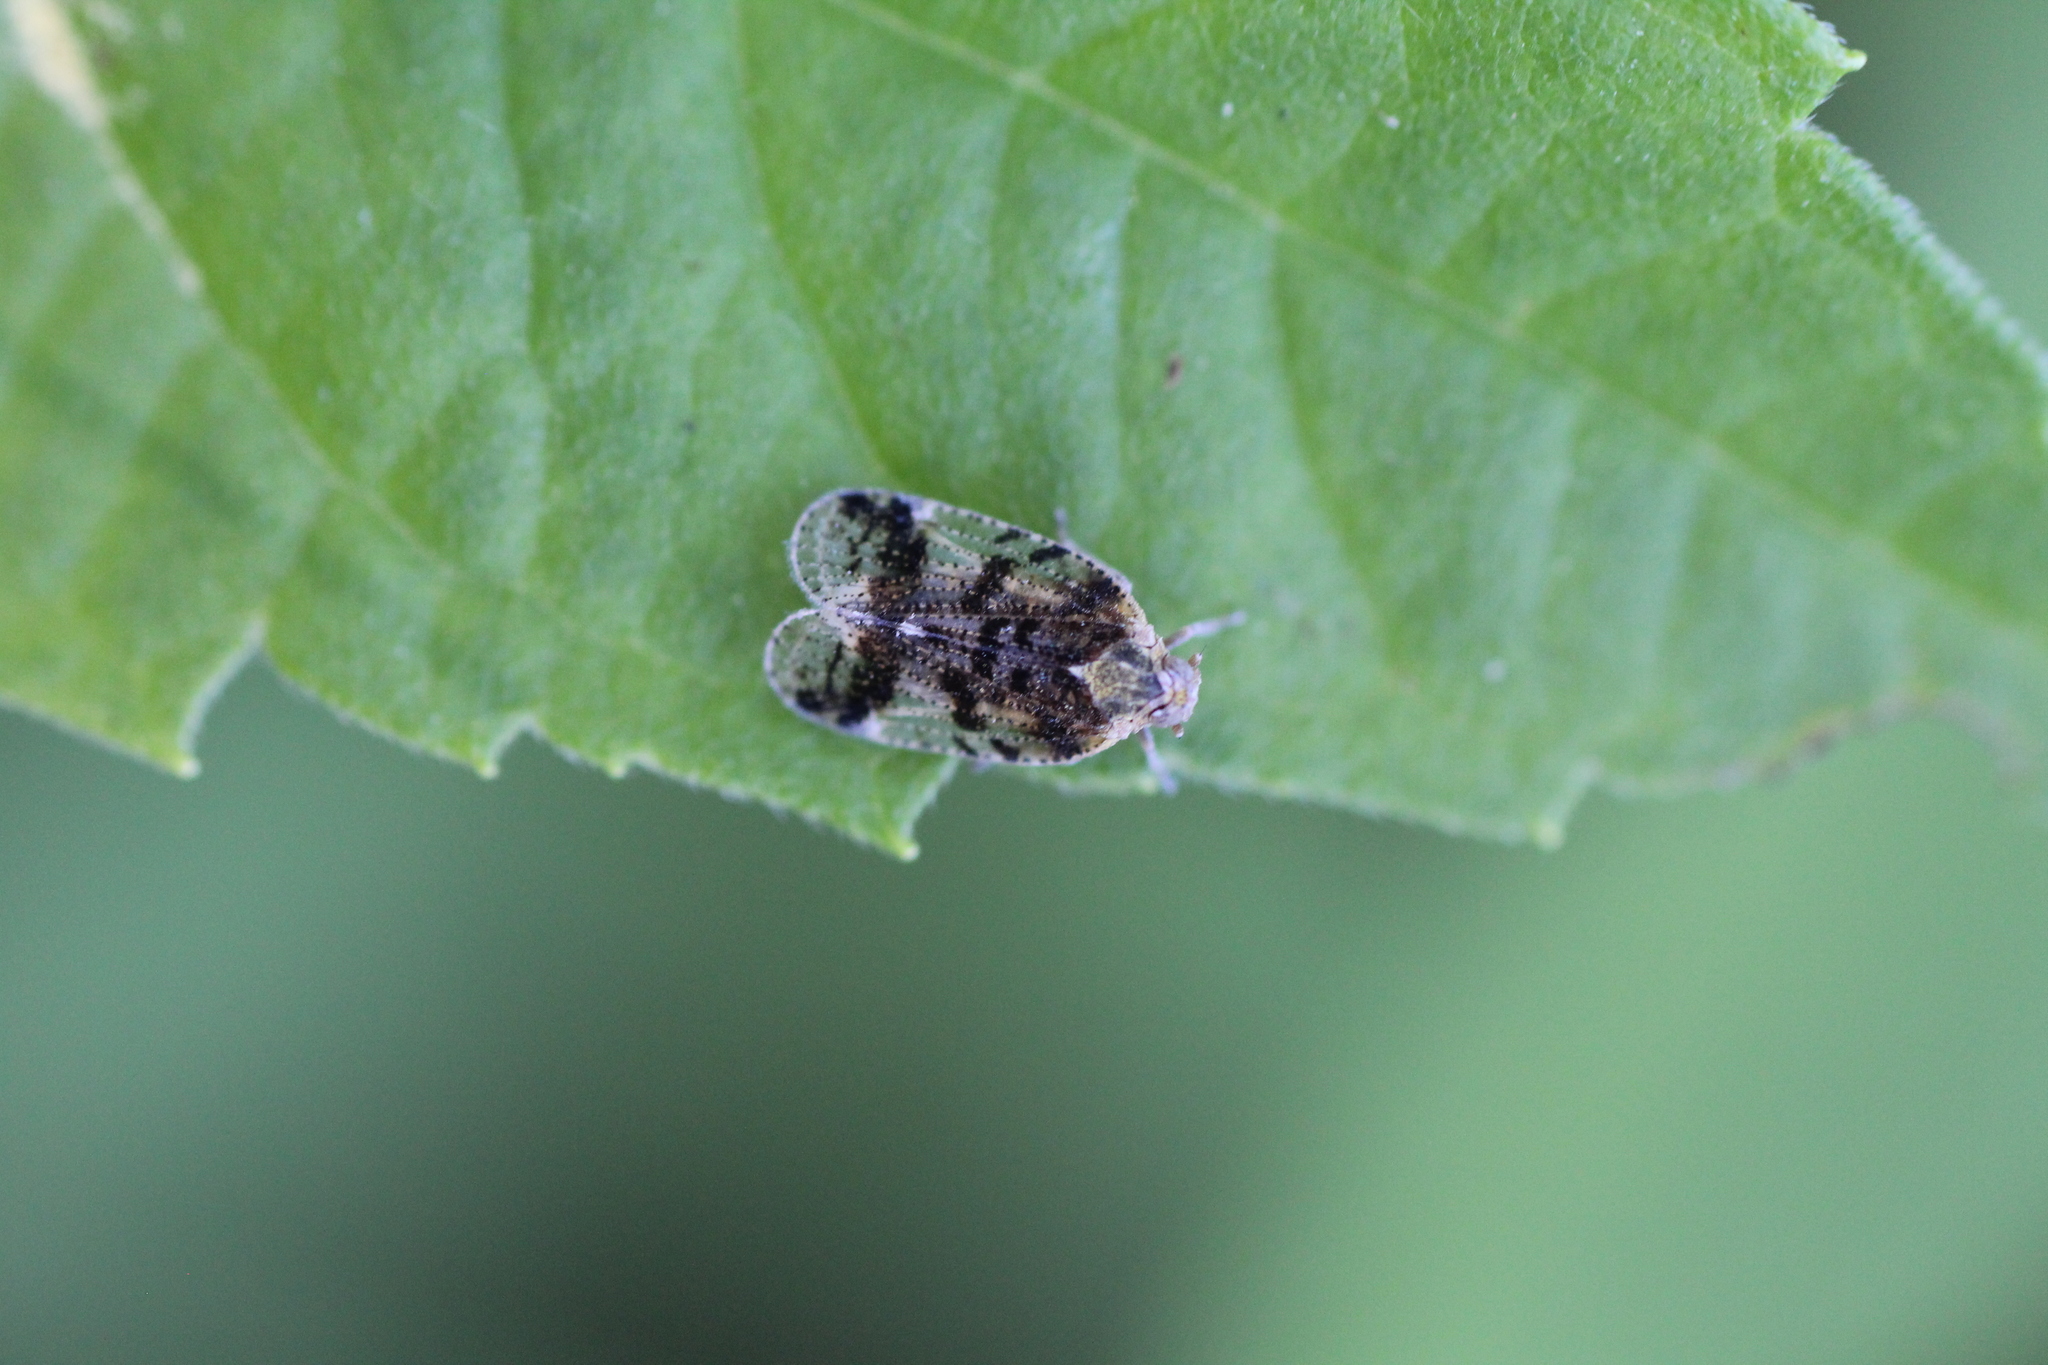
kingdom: Animalia
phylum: Arthropoda
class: Insecta
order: Hemiptera
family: Cixiidae
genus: Cixius
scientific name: Cixius cunicularius
